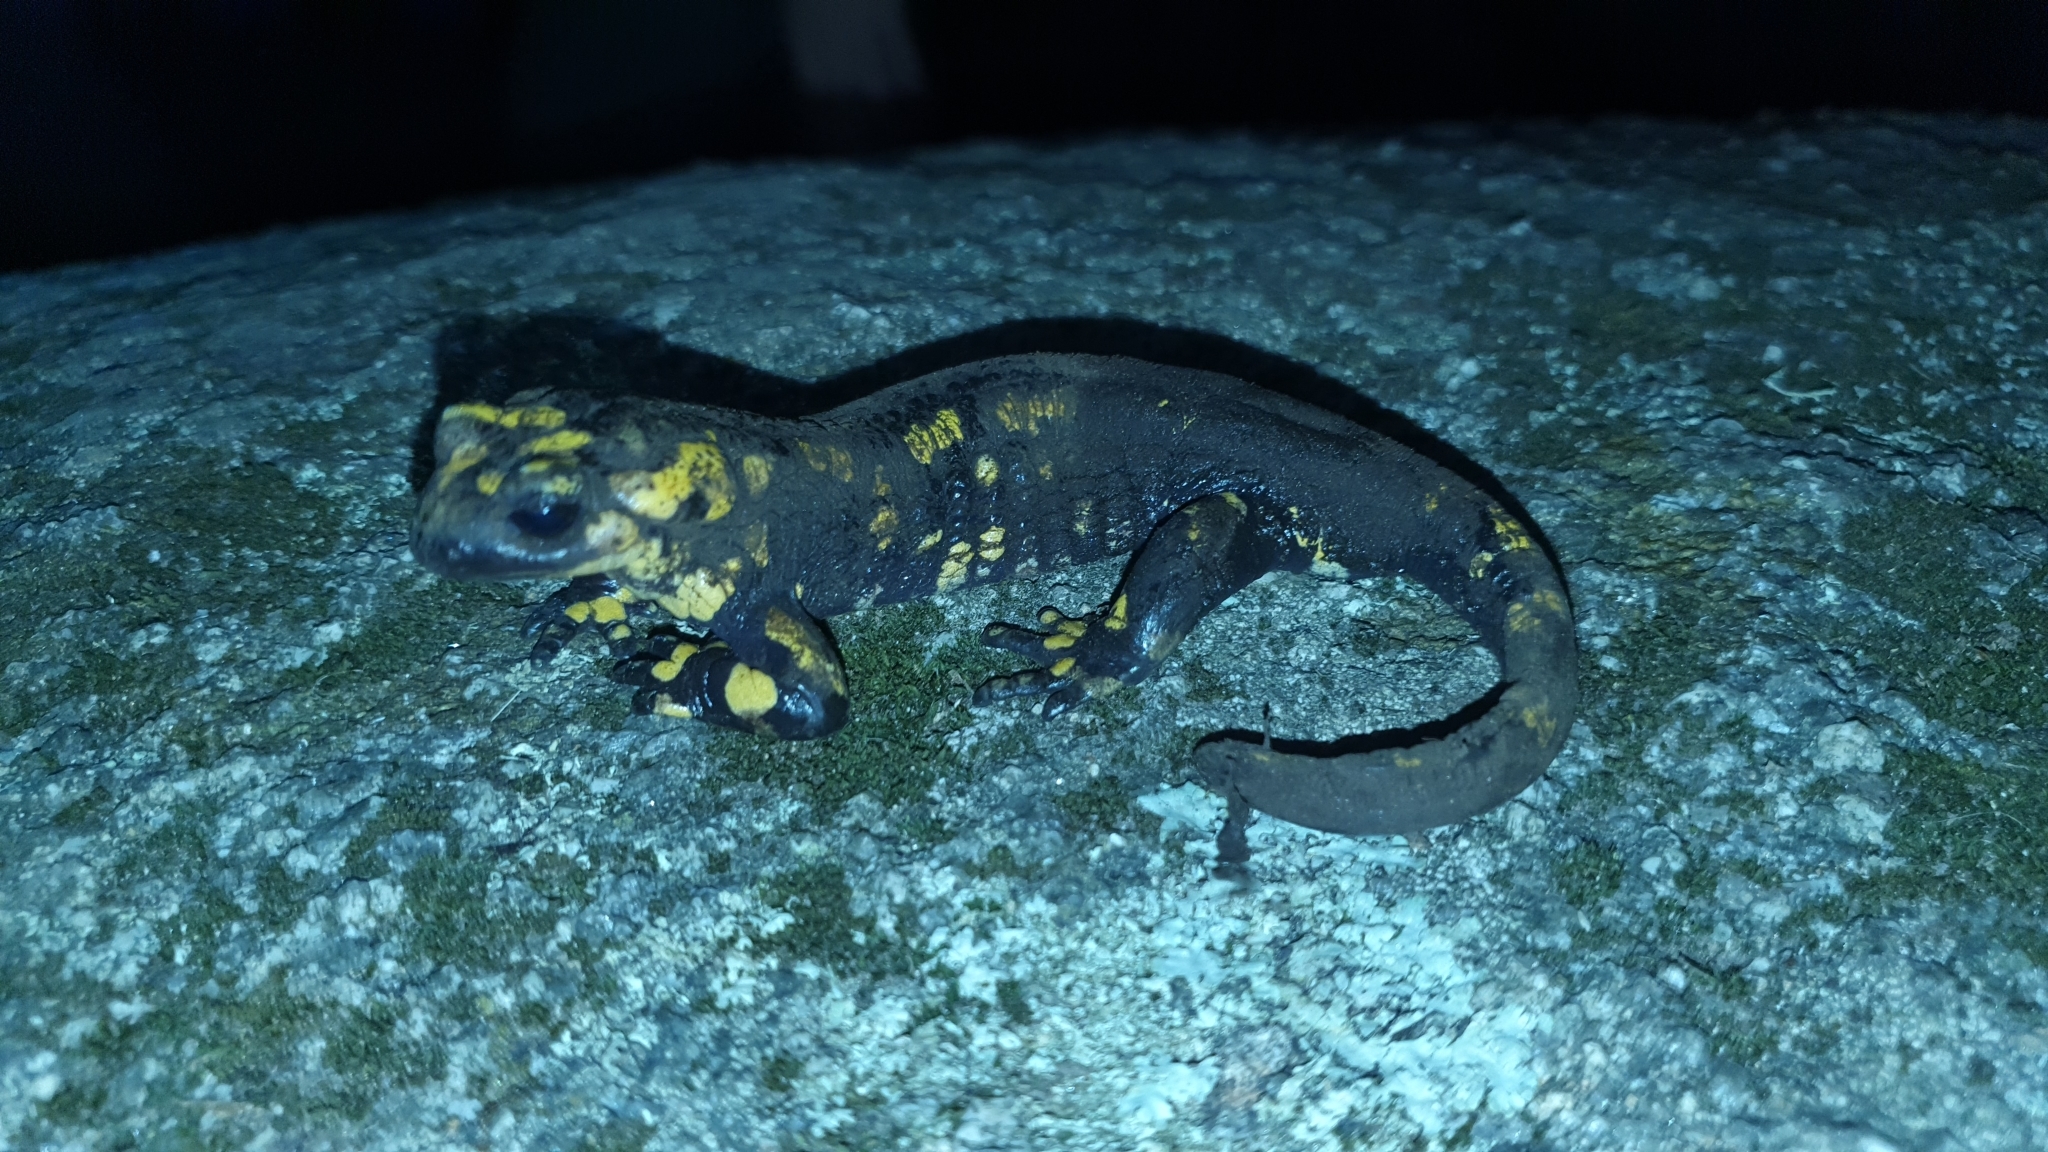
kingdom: Animalia
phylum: Chordata
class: Amphibia
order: Caudata
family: Salamandridae
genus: Salamandra
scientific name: Salamandra salamandra
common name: Fire salamander
